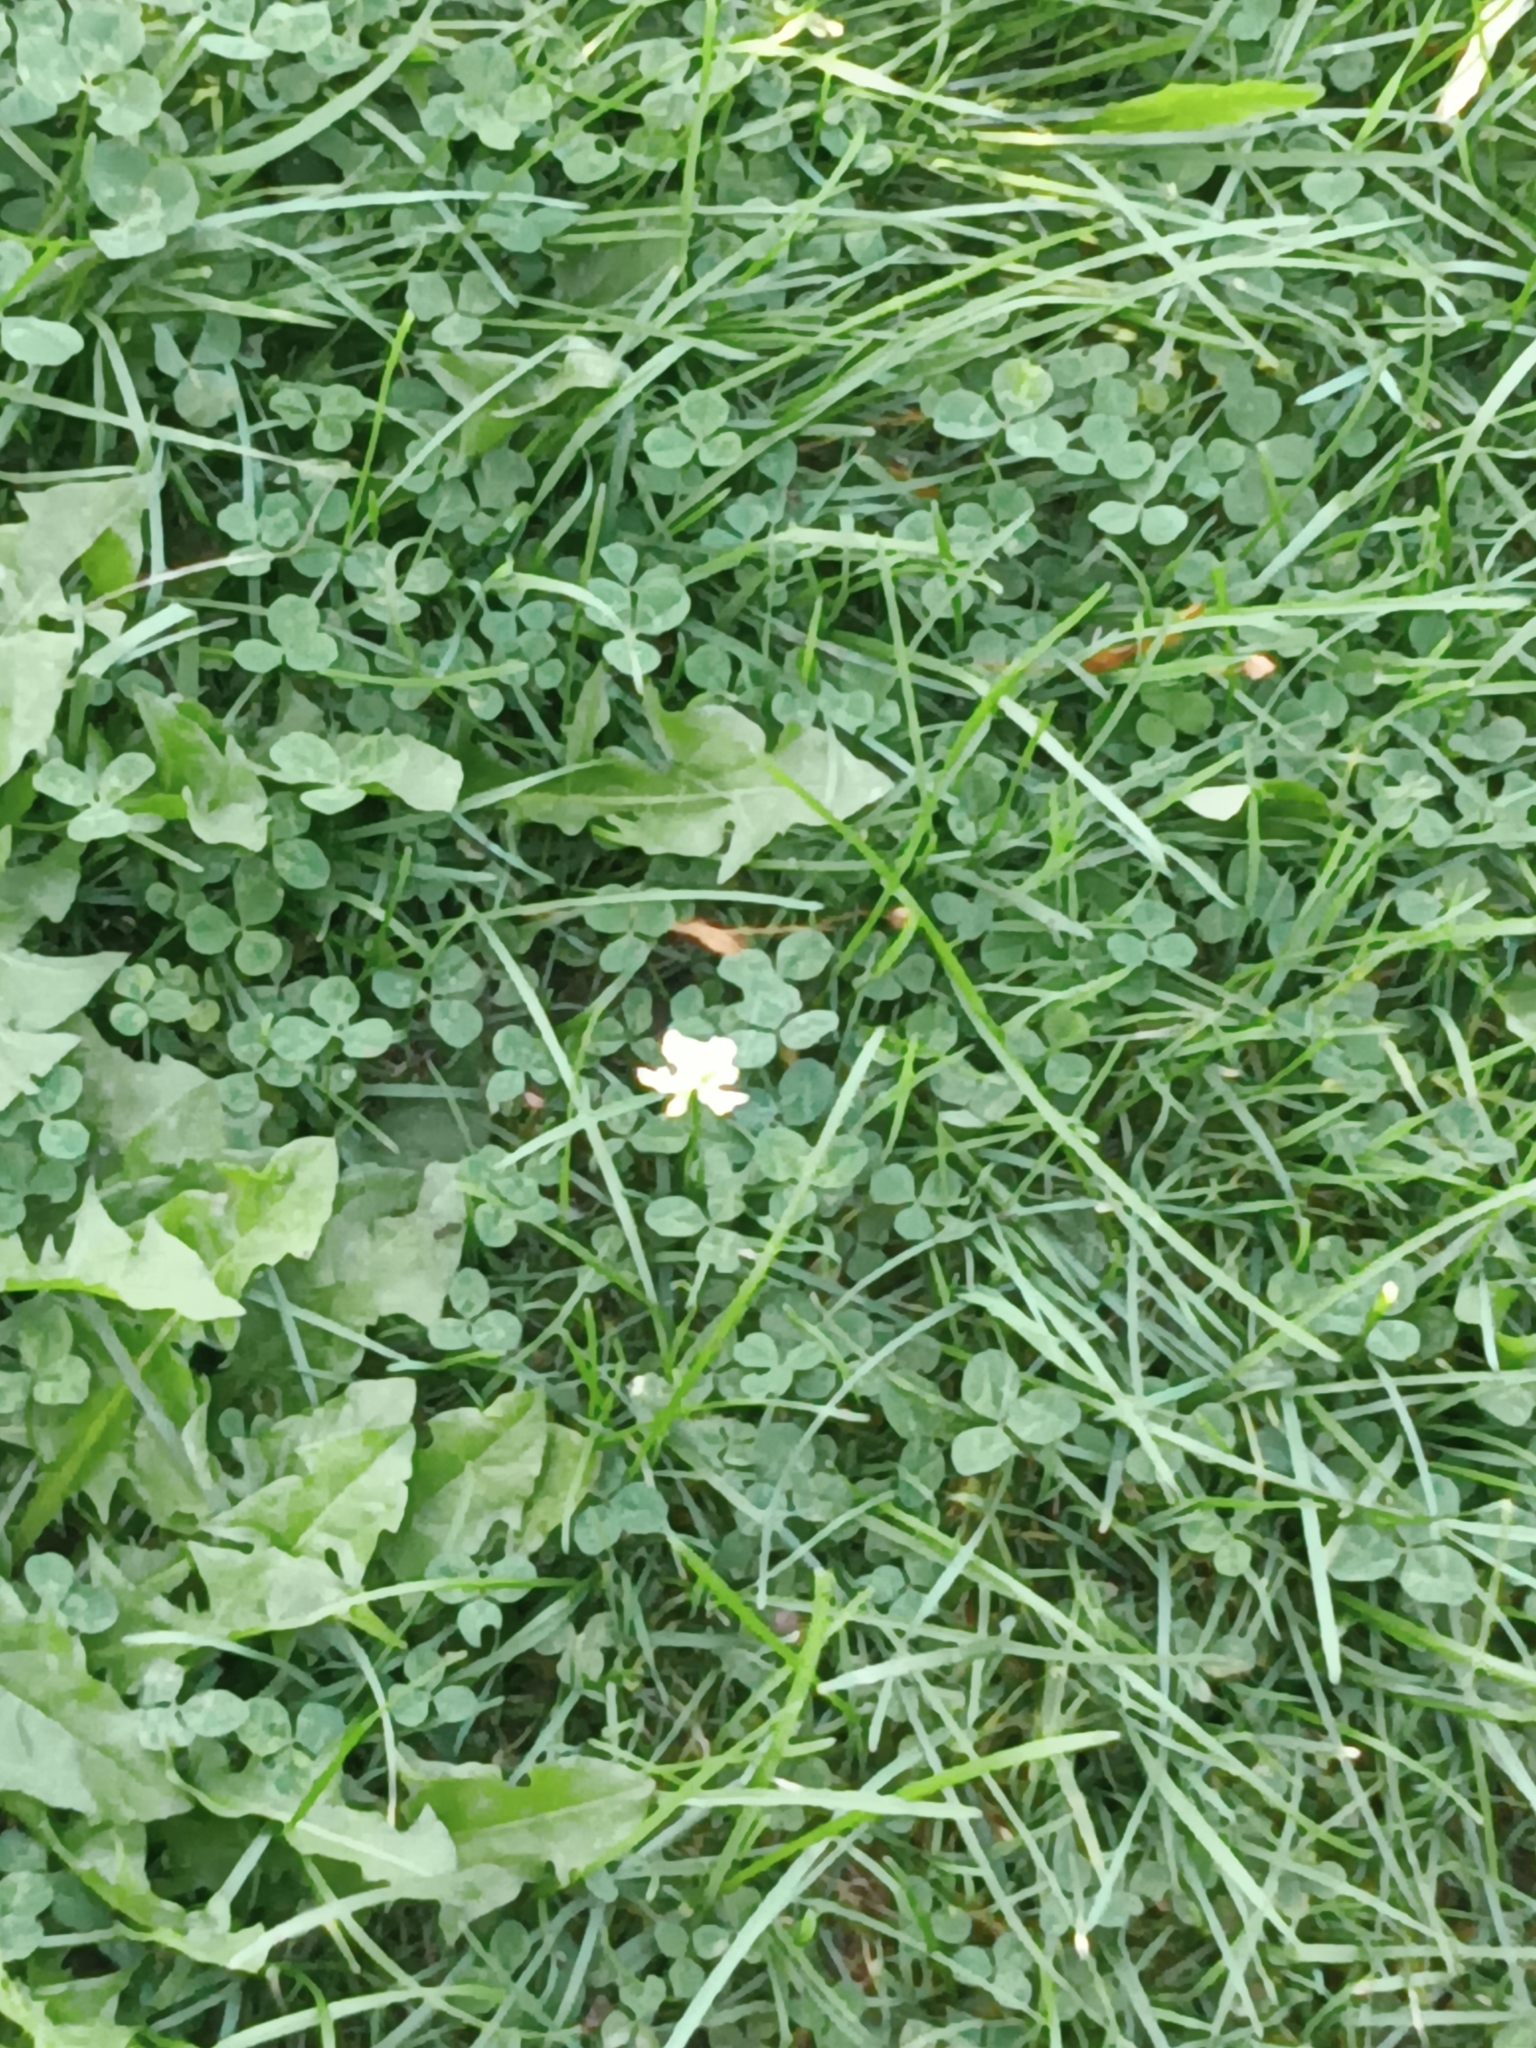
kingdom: Plantae
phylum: Tracheophyta
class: Magnoliopsida
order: Fabales
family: Fabaceae
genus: Trifolium
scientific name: Trifolium repens
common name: White clover
